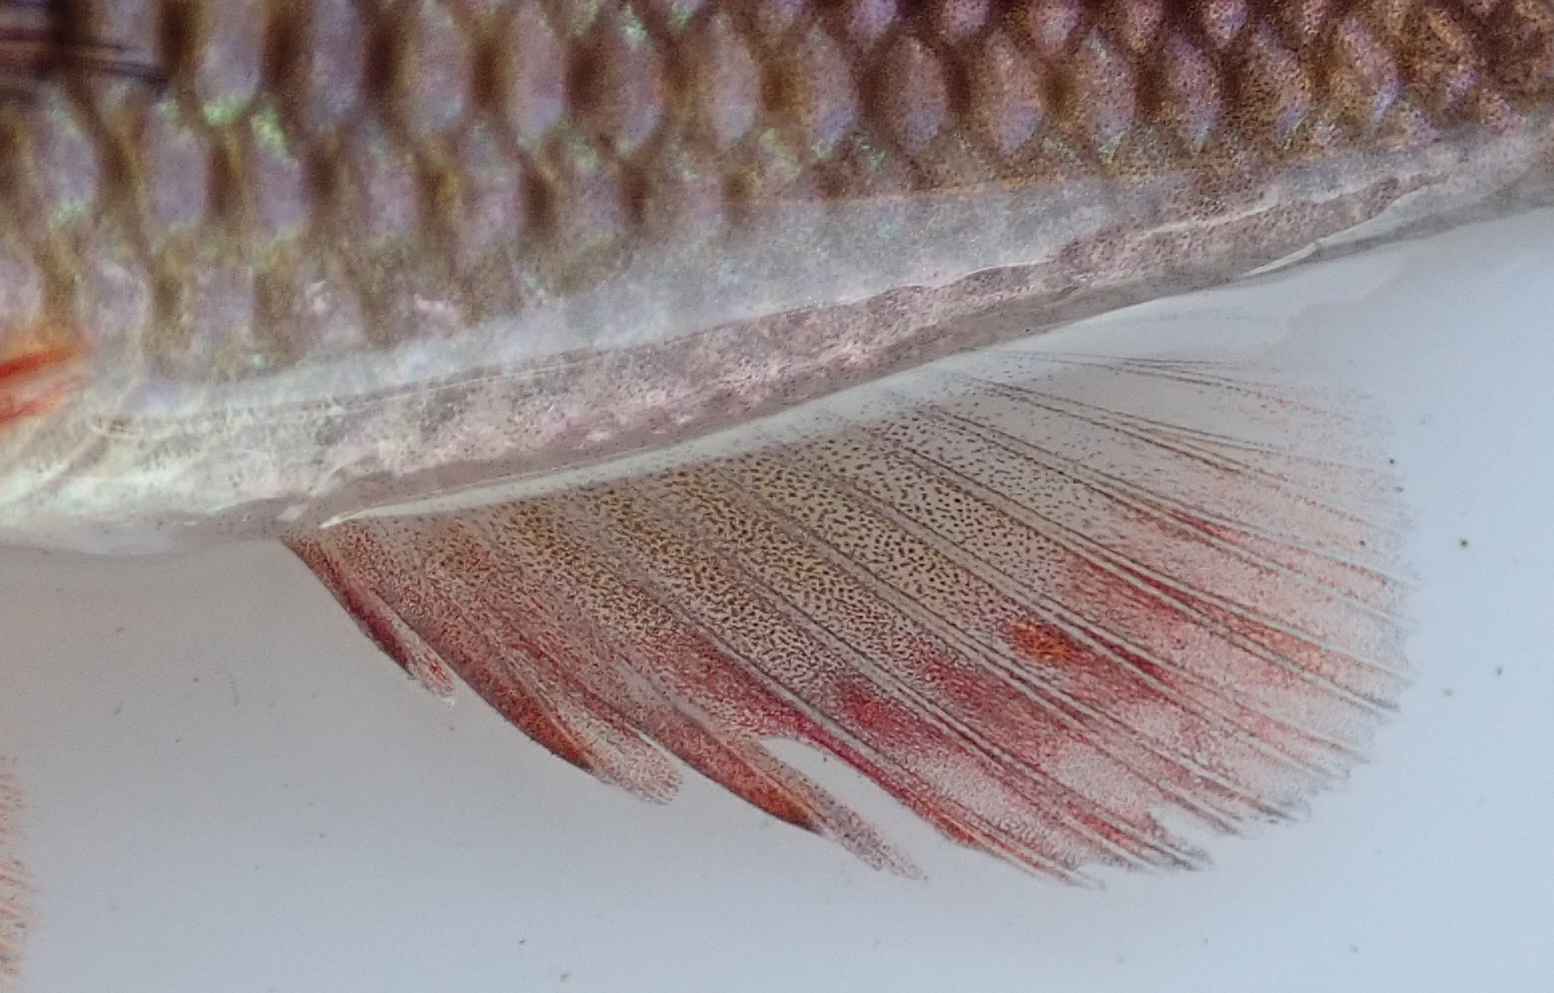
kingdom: Animalia
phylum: Chordata
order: Perciformes
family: Cichlidae
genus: Pharyngochromis
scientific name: Pharyngochromis acuticeps
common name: Zambezi happy
